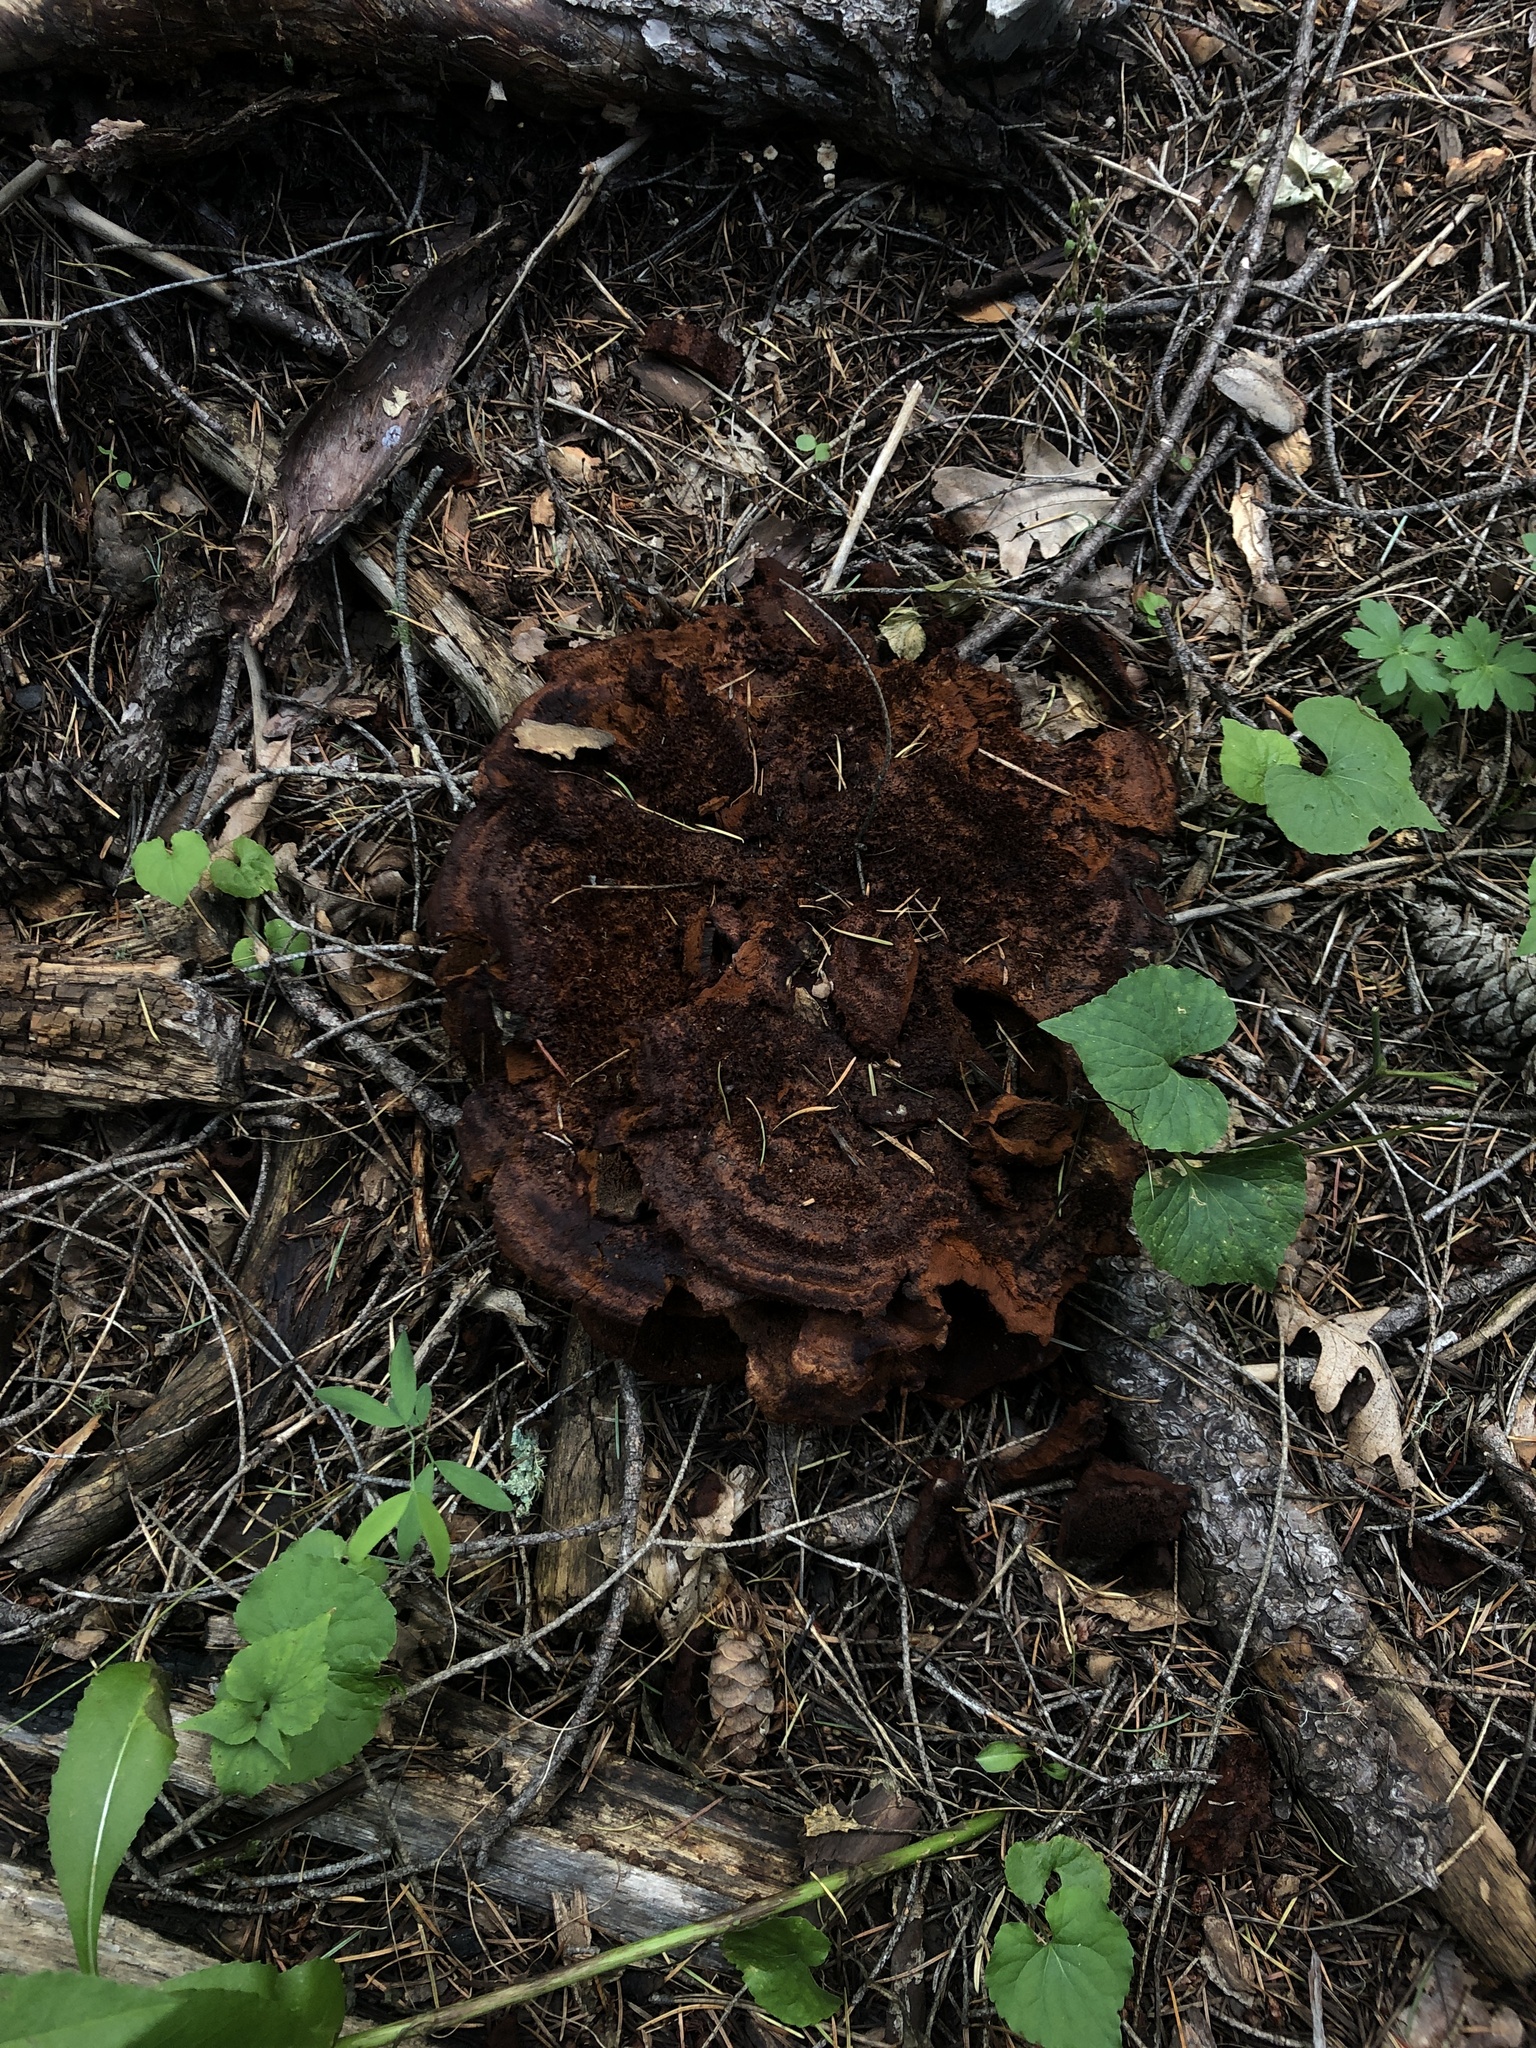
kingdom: Fungi
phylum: Basidiomycota
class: Agaricomycetes
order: Polyporales
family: Laetiporaceae
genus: Phaeolus
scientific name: Phaeolus schweinitzii
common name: Dyer's mazegill
